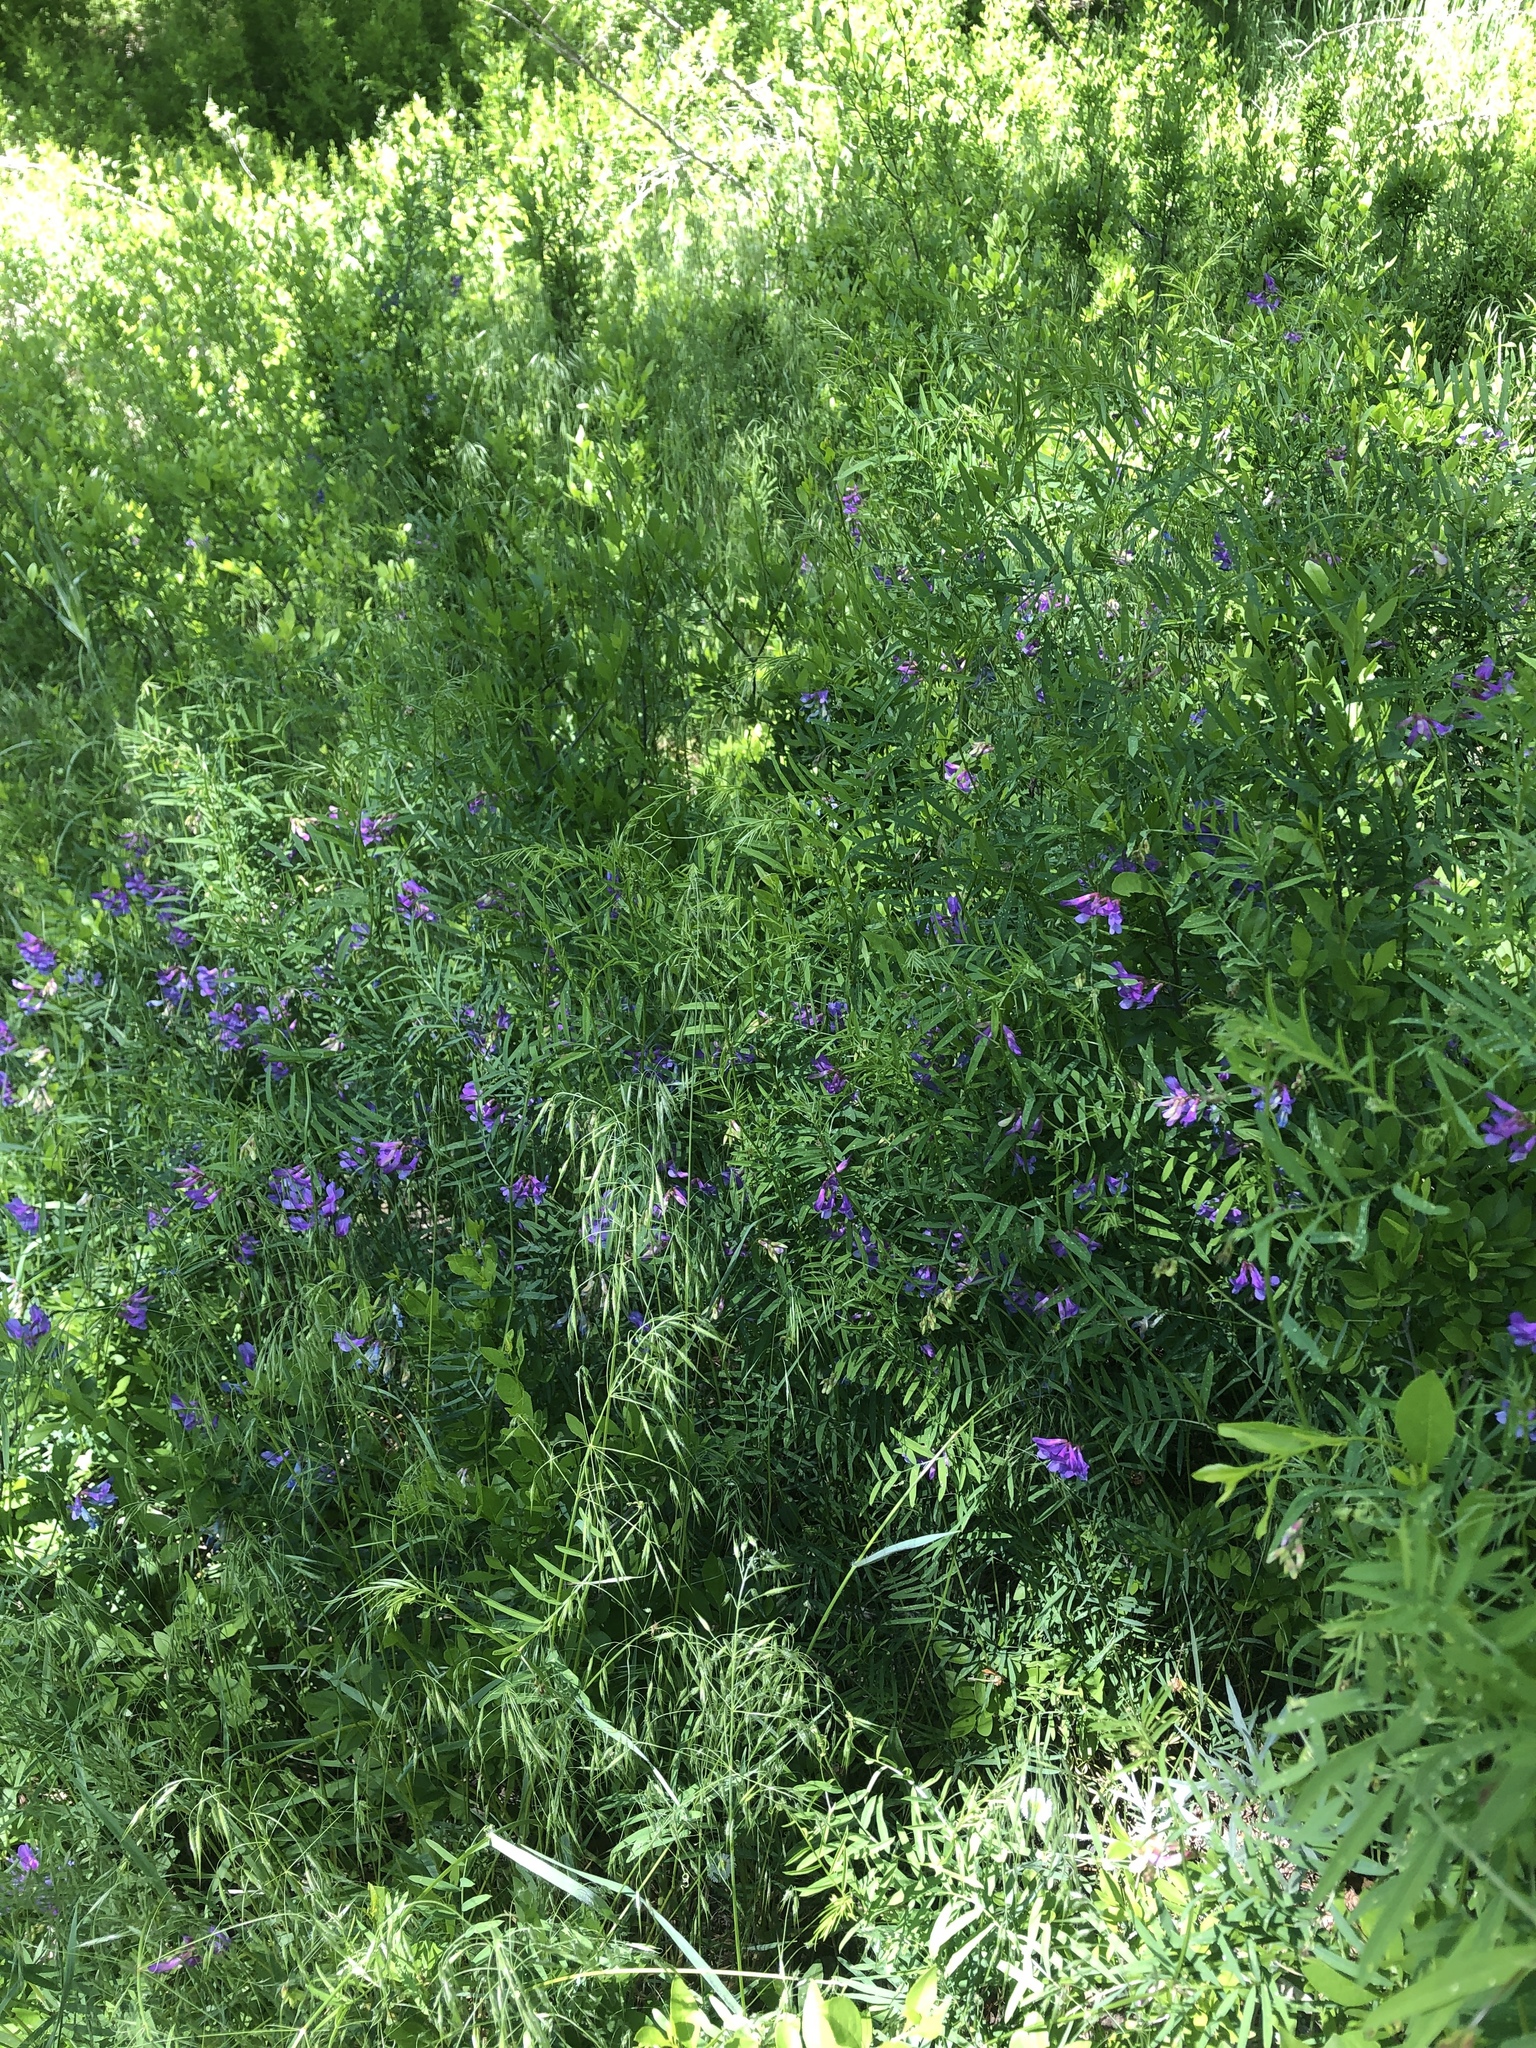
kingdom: Plantae
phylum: Tracheophyta
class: Magnoliopsida
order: Fabales
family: Fabaceae
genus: Vicia
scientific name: Vicia americana
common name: American vetch
